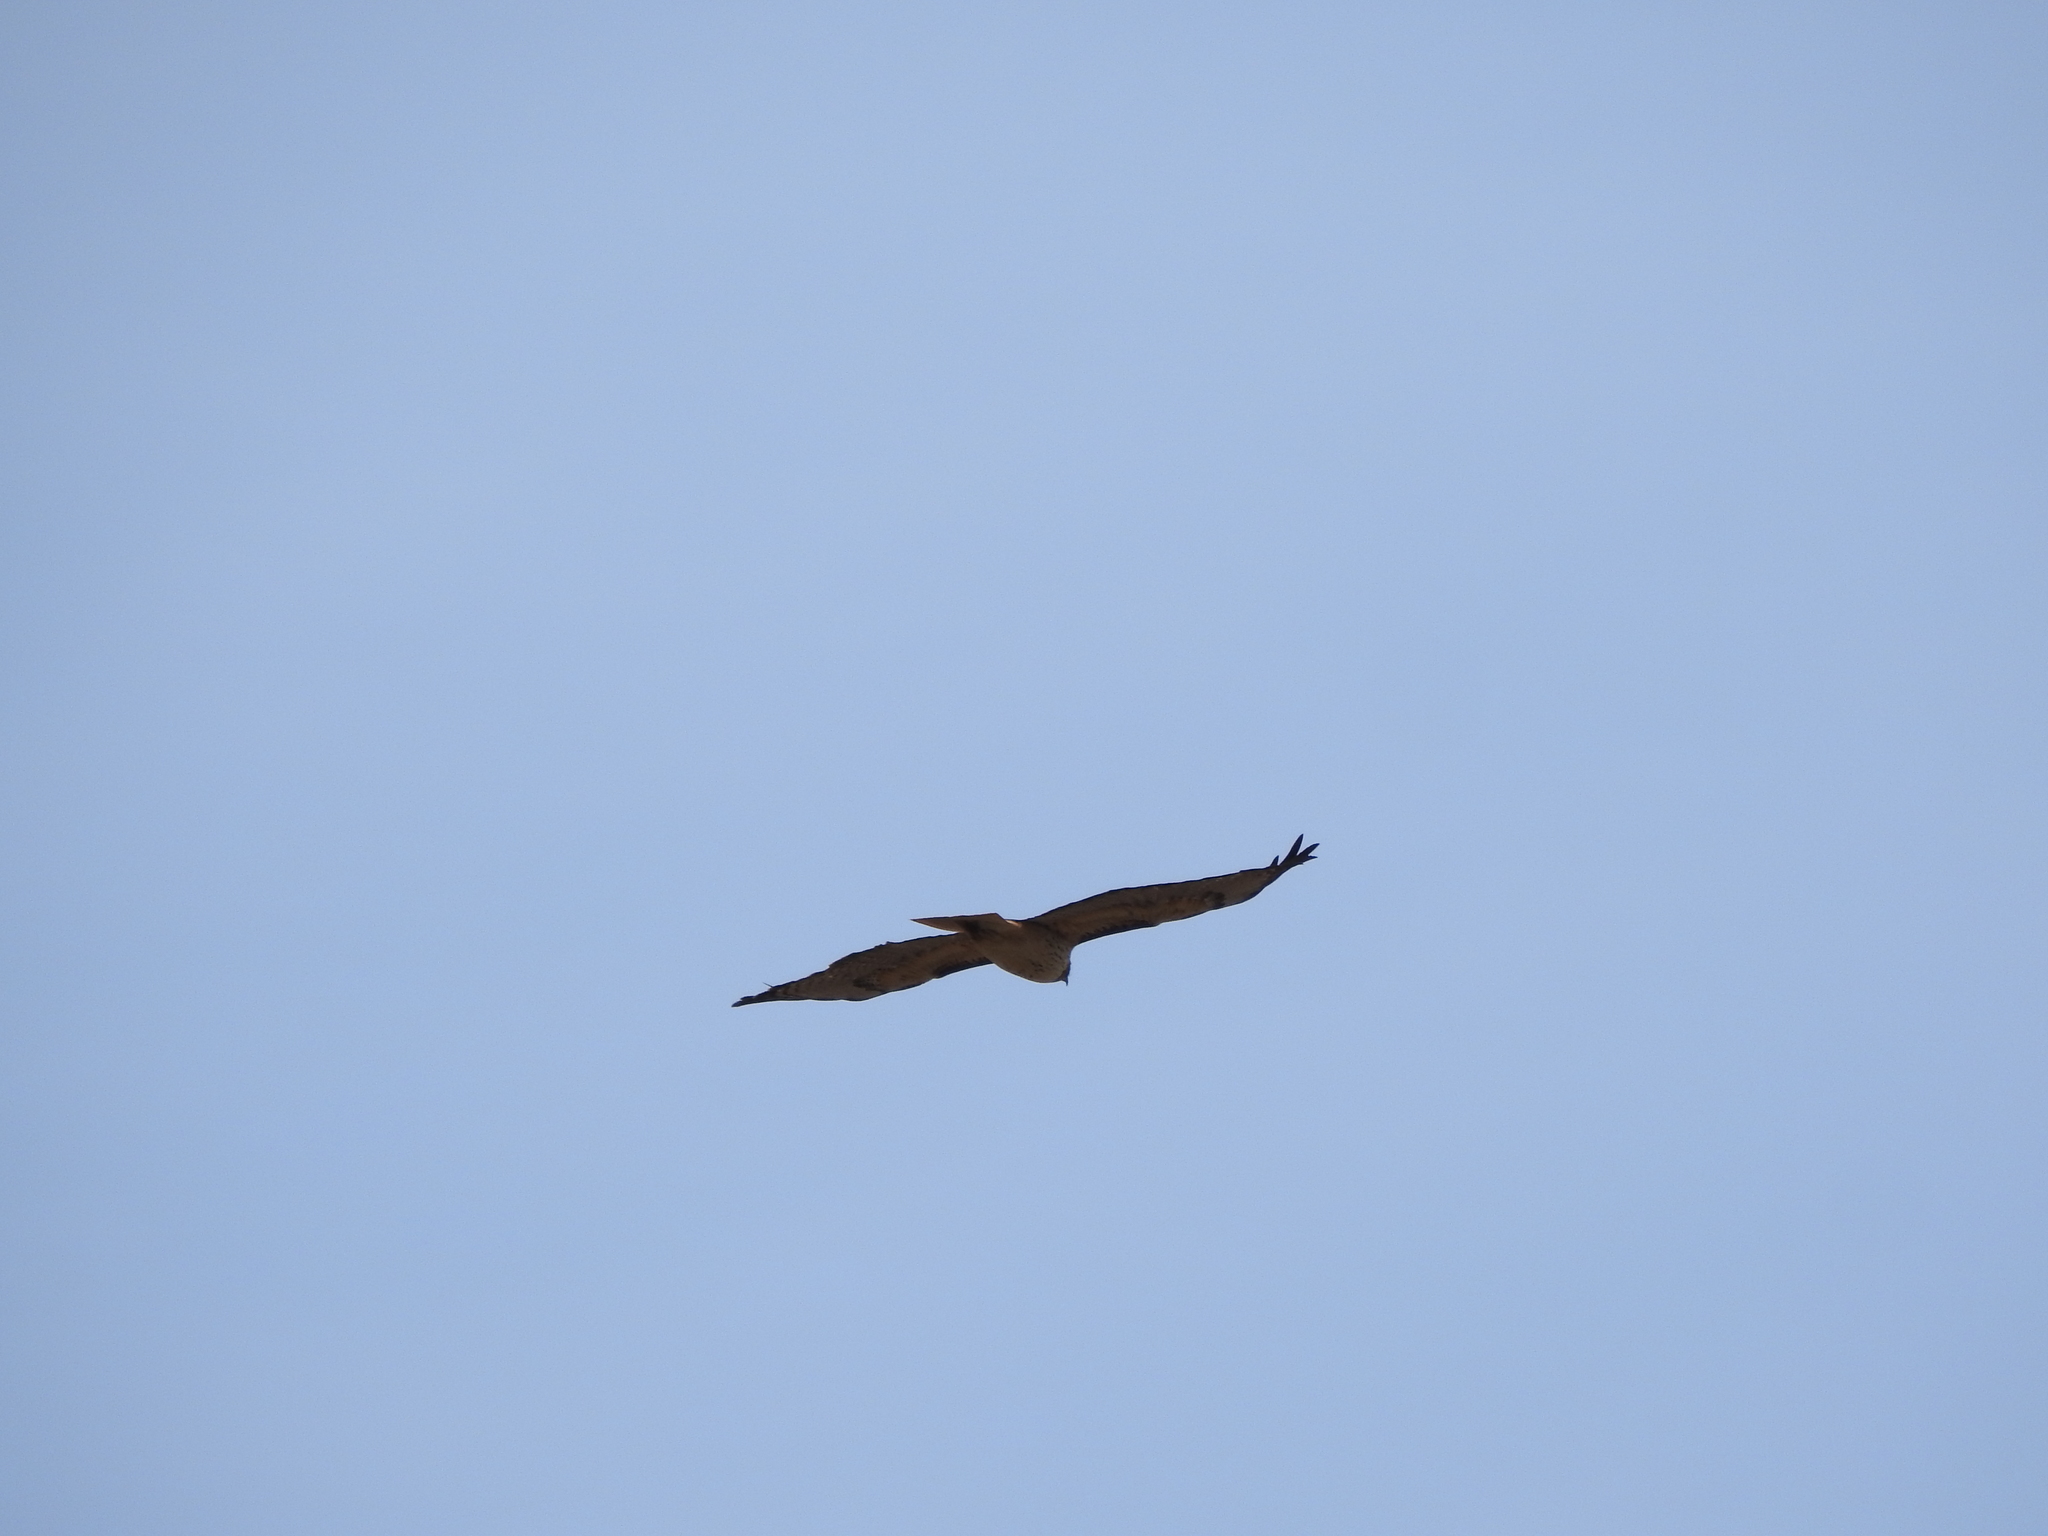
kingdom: Animalia
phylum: Chordata
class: Aves
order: Accipitriformes
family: Accipitridae
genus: Buteo
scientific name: Buteo jamaicensis
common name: Red-tailed hawk
